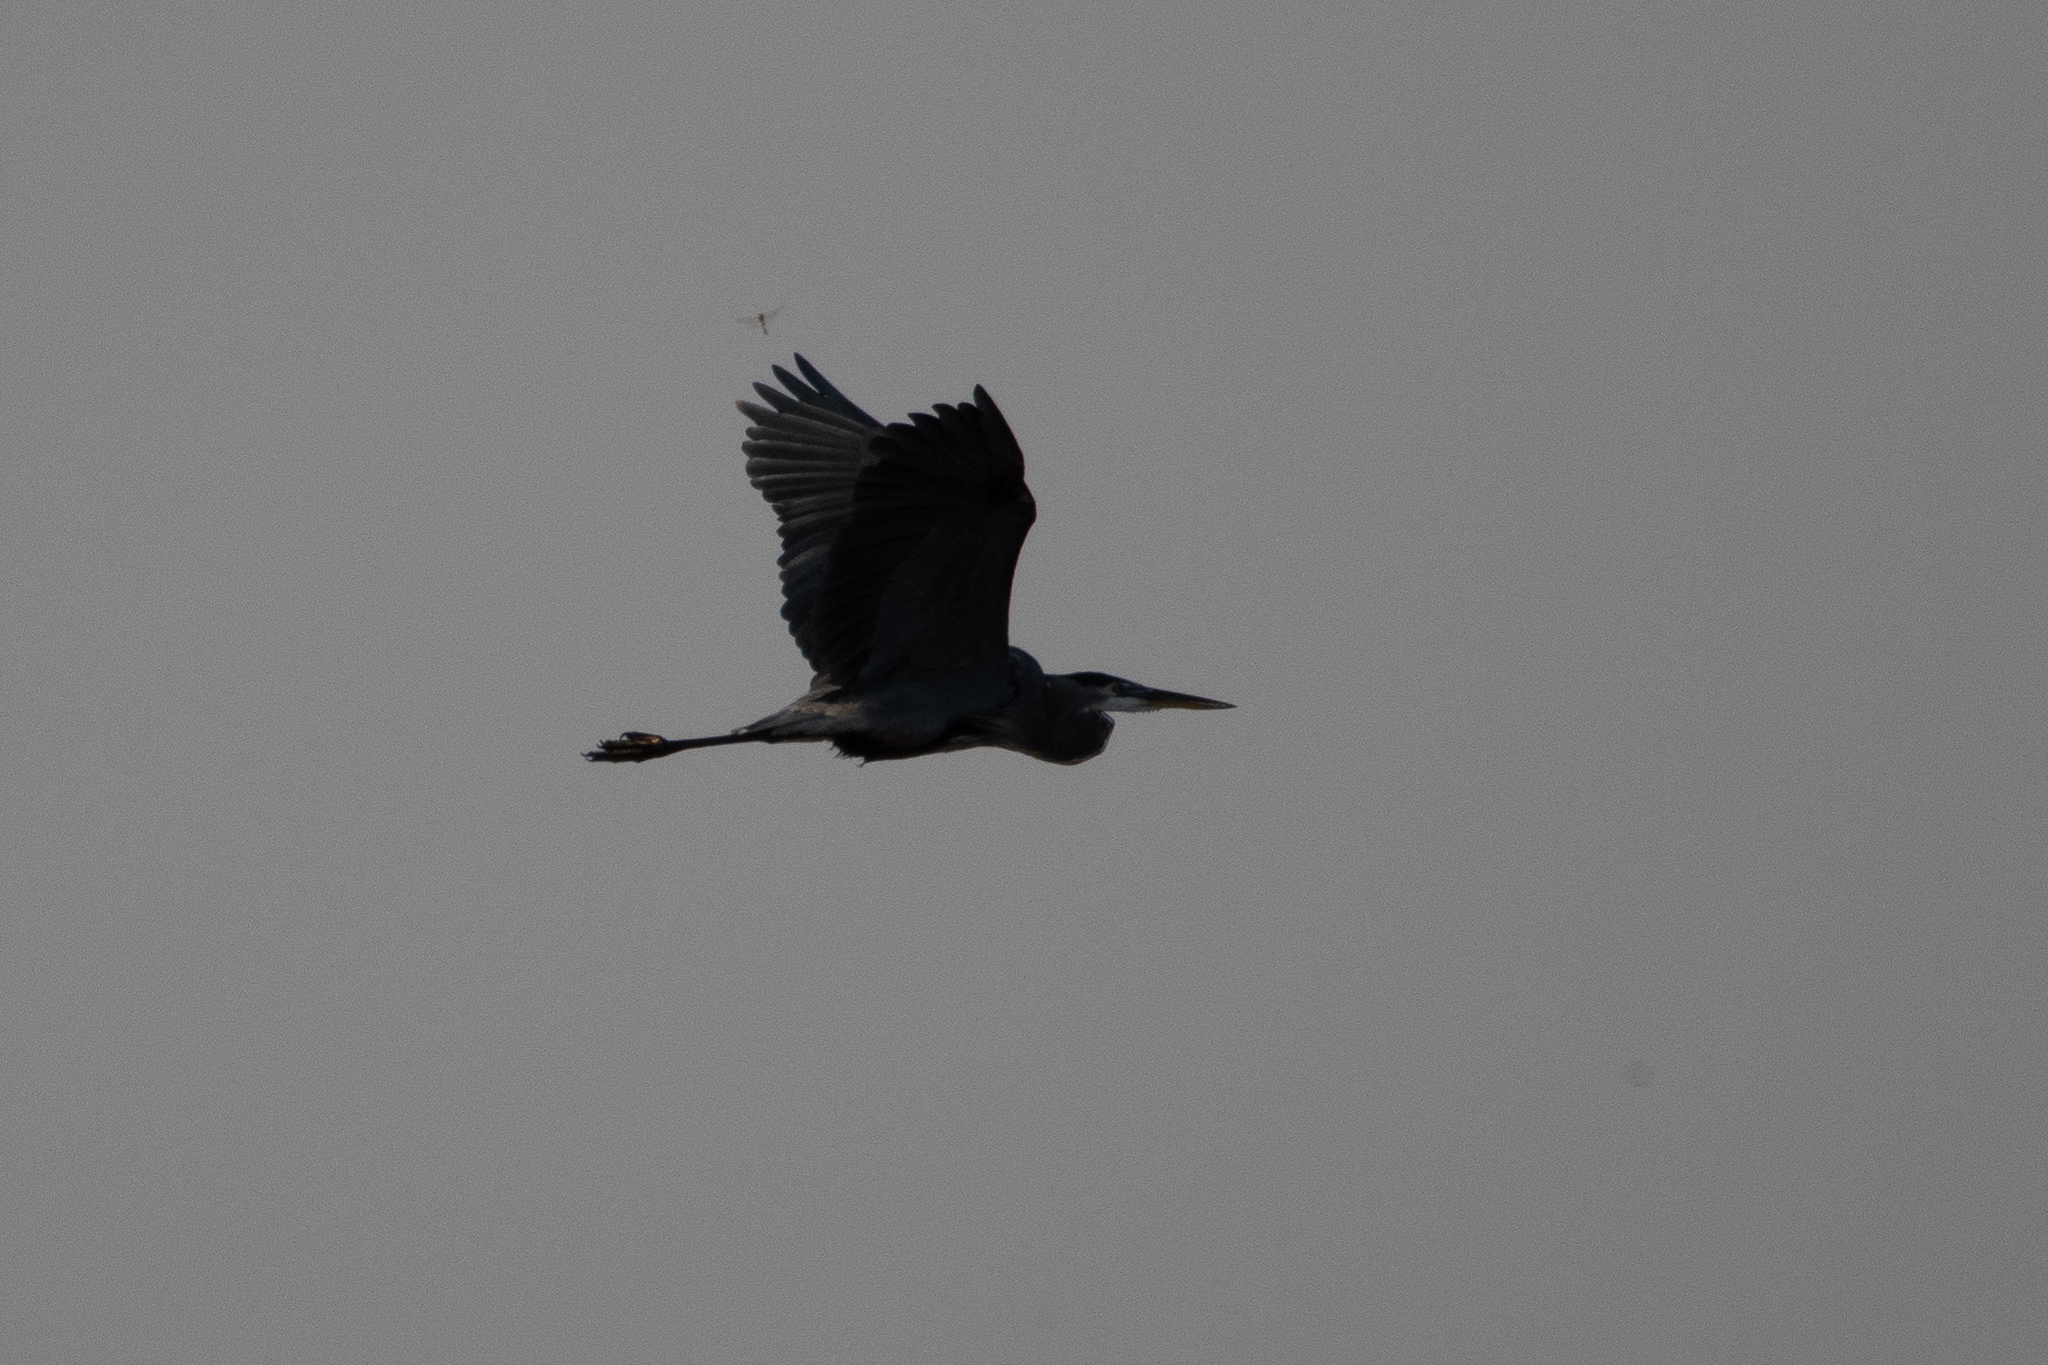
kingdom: Animalia
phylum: Chordata
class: Aves
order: Pelecaniformes
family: Ardeidae
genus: Ardea
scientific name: Ardea herodias
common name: Great blue heron
